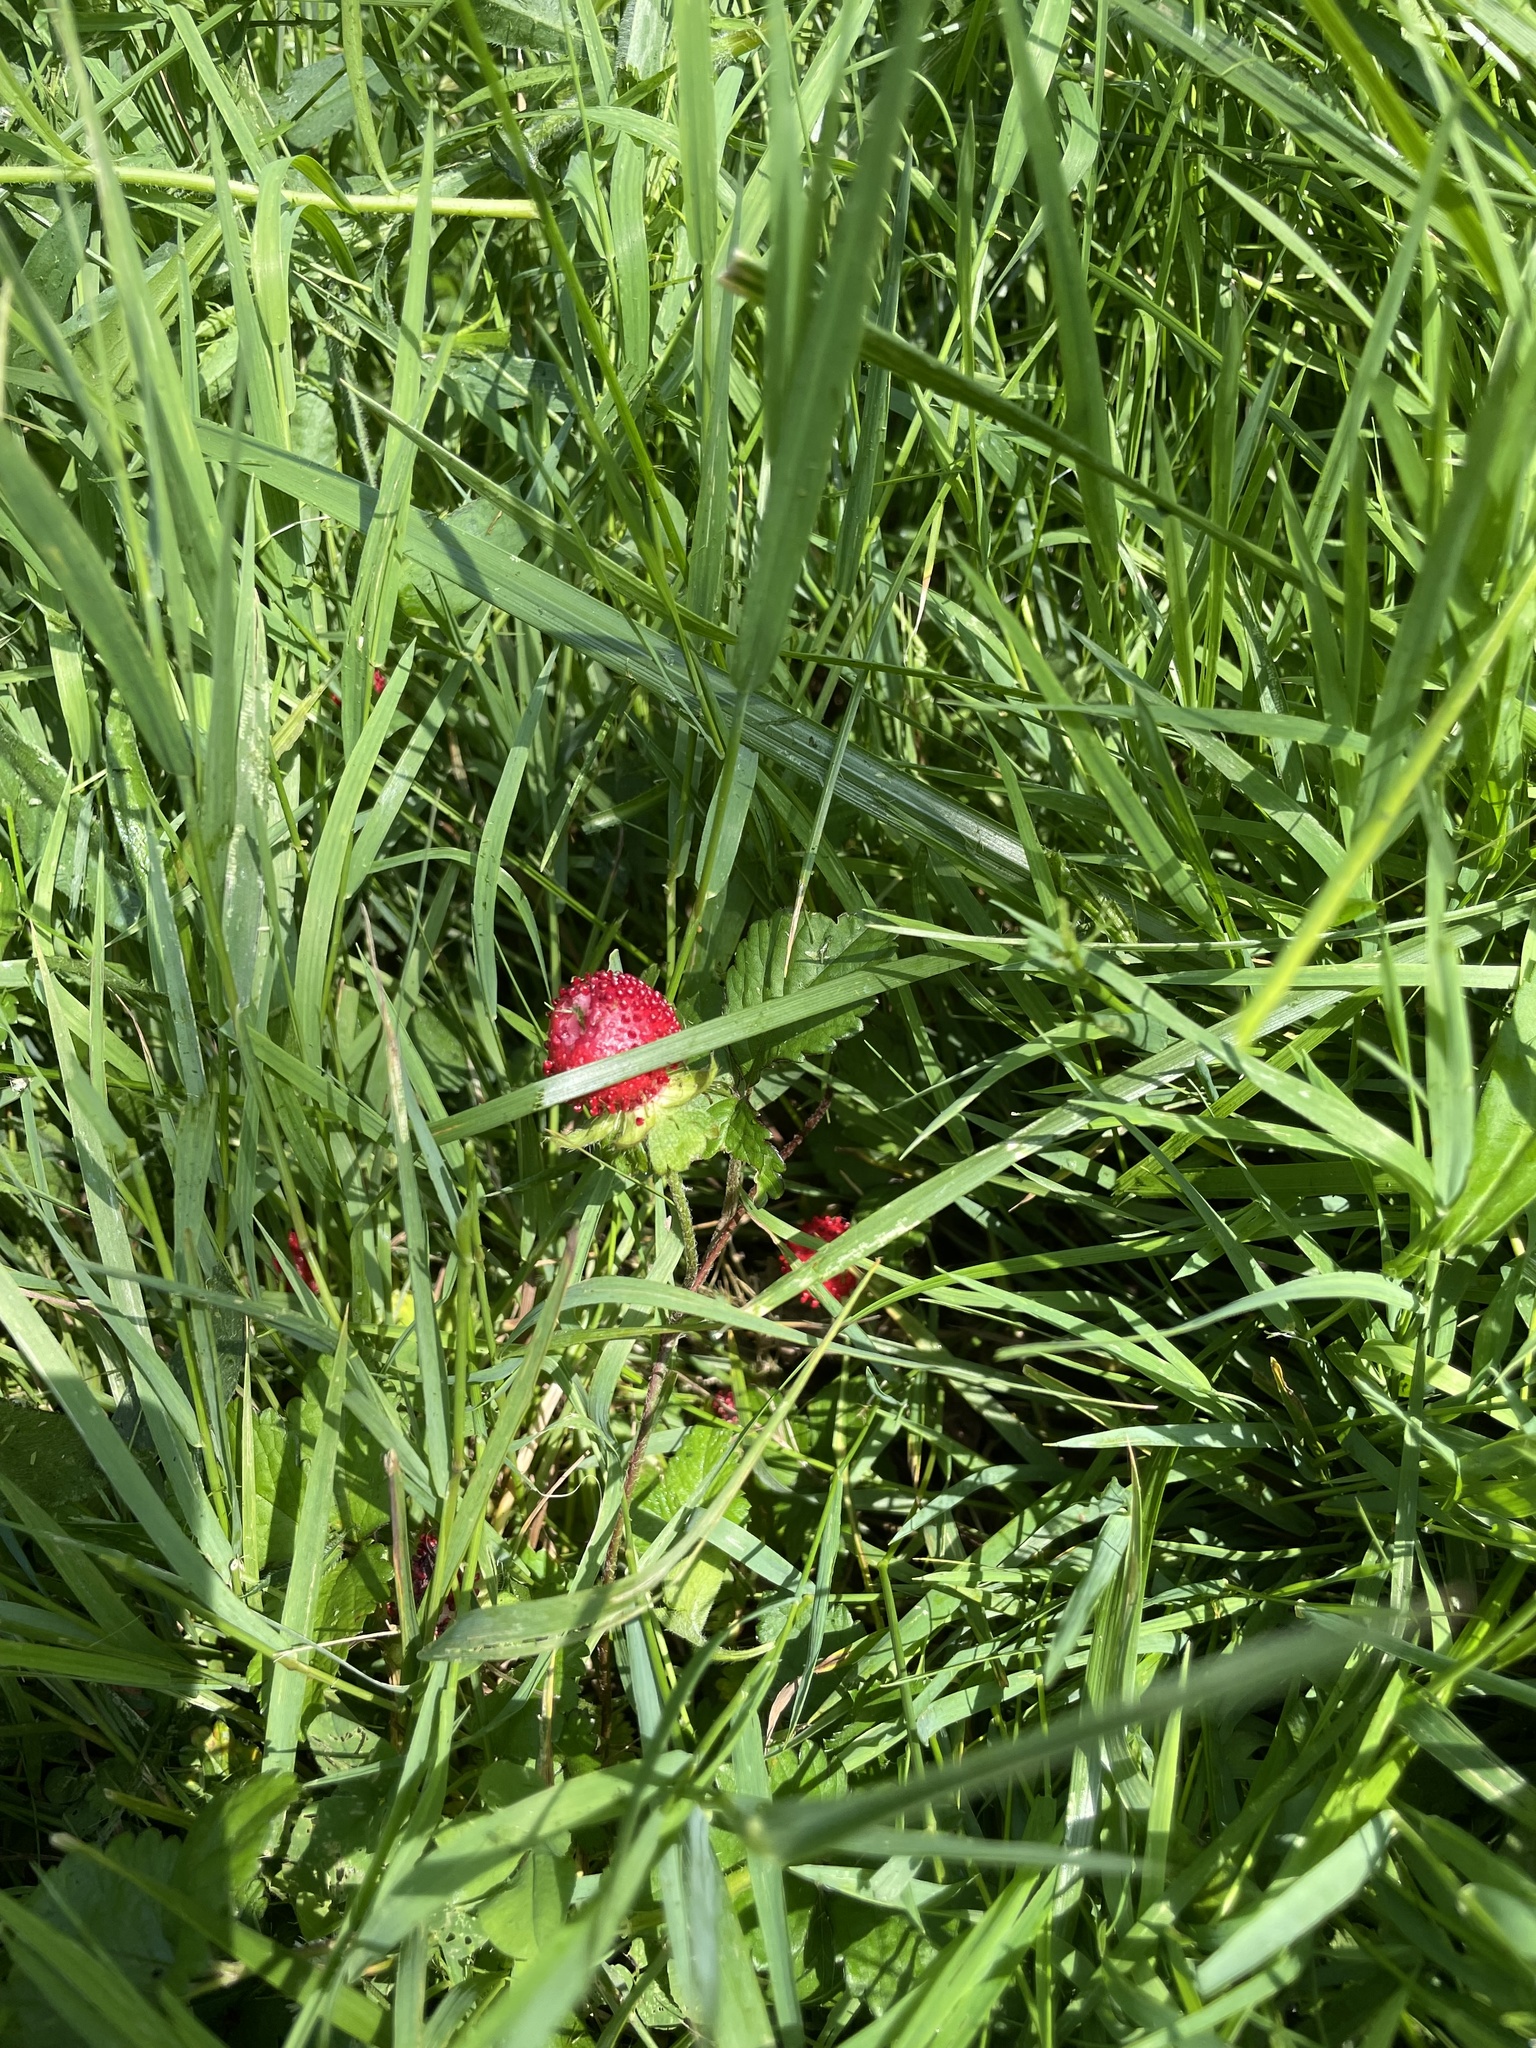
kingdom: Plantae
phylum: Tracheophyta
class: Magnoliopsida
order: Rosales
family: Rosaceae
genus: Potentilla
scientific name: Potentilla indica
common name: Yellow-flowered strawberry
